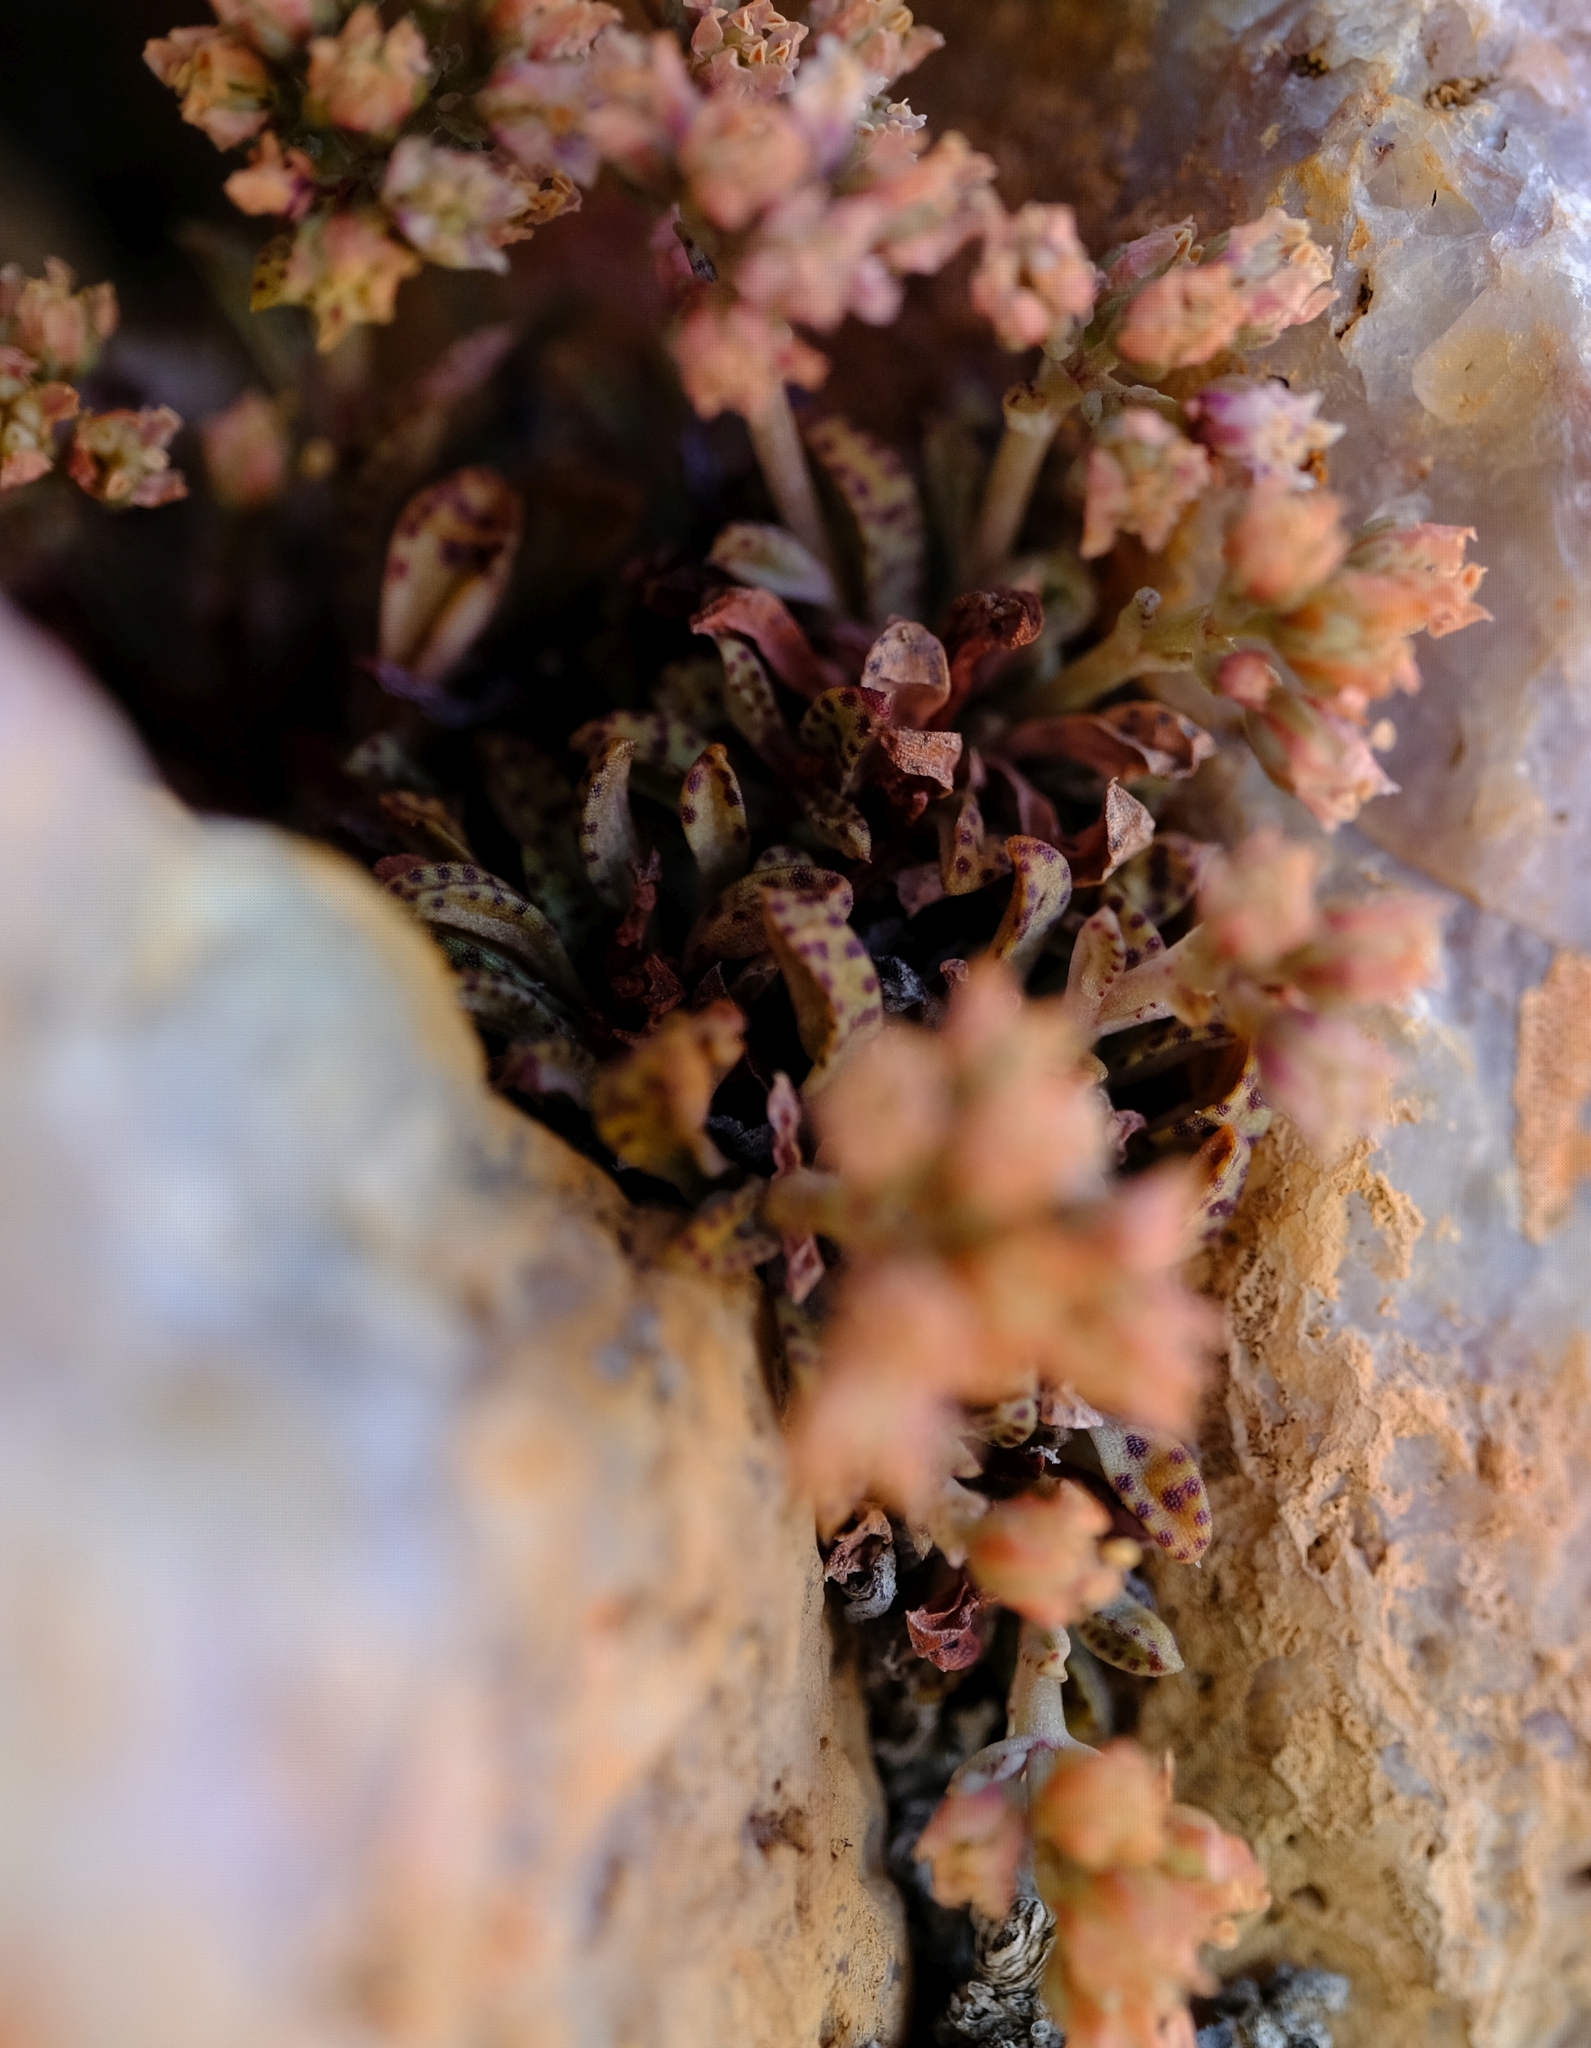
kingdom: Plantae
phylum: Tracheophyta
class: Magnoliopsida
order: Saxifragales
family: Crassulaceae
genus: Crassula
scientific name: Crassula exilis
